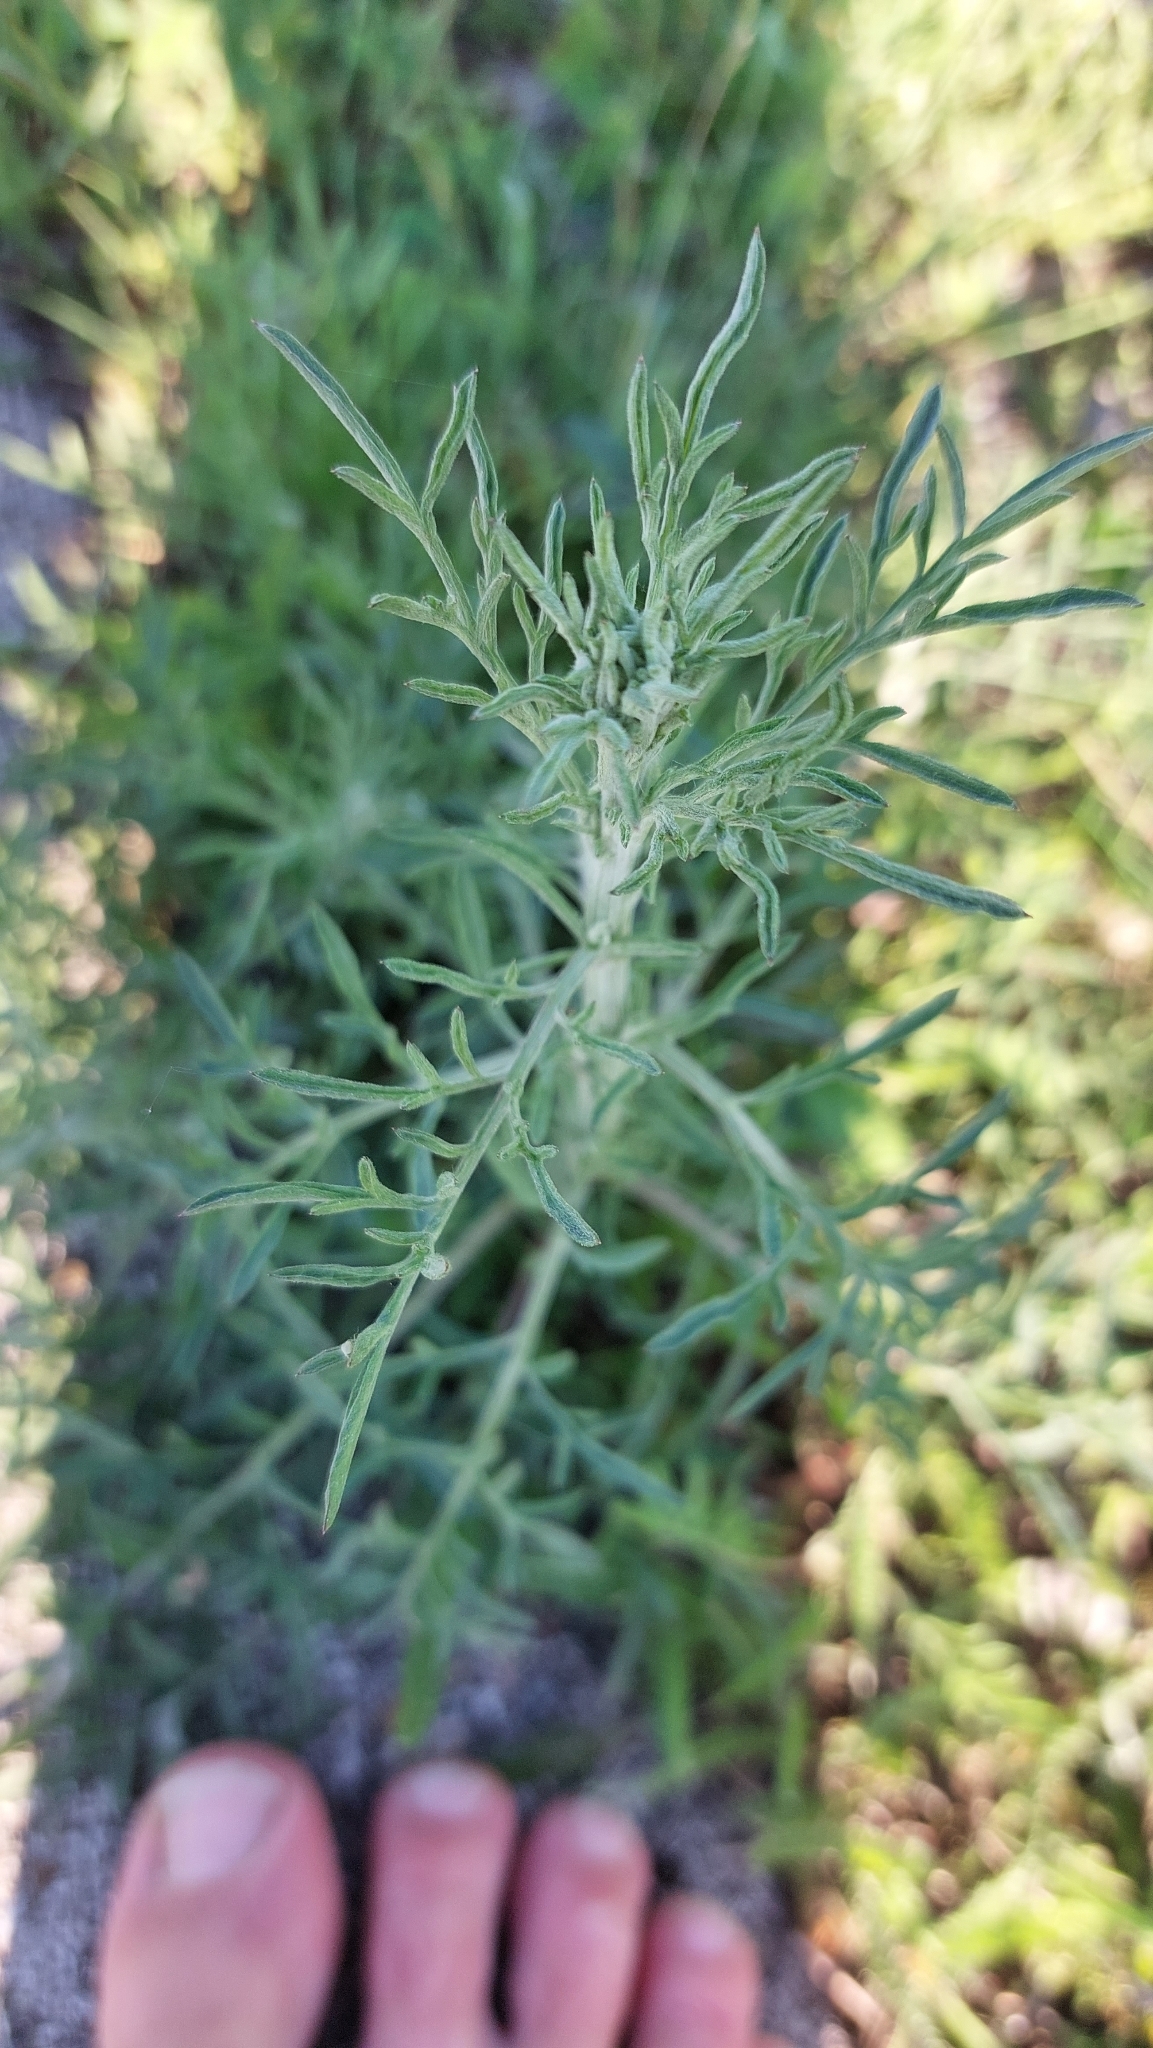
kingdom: Plantae
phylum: Tracheophyta
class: Magnoliopsida
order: Asterales
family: Asteraceae
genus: Centaurea
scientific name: Centaurea stoebe
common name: Spotted knapweed
